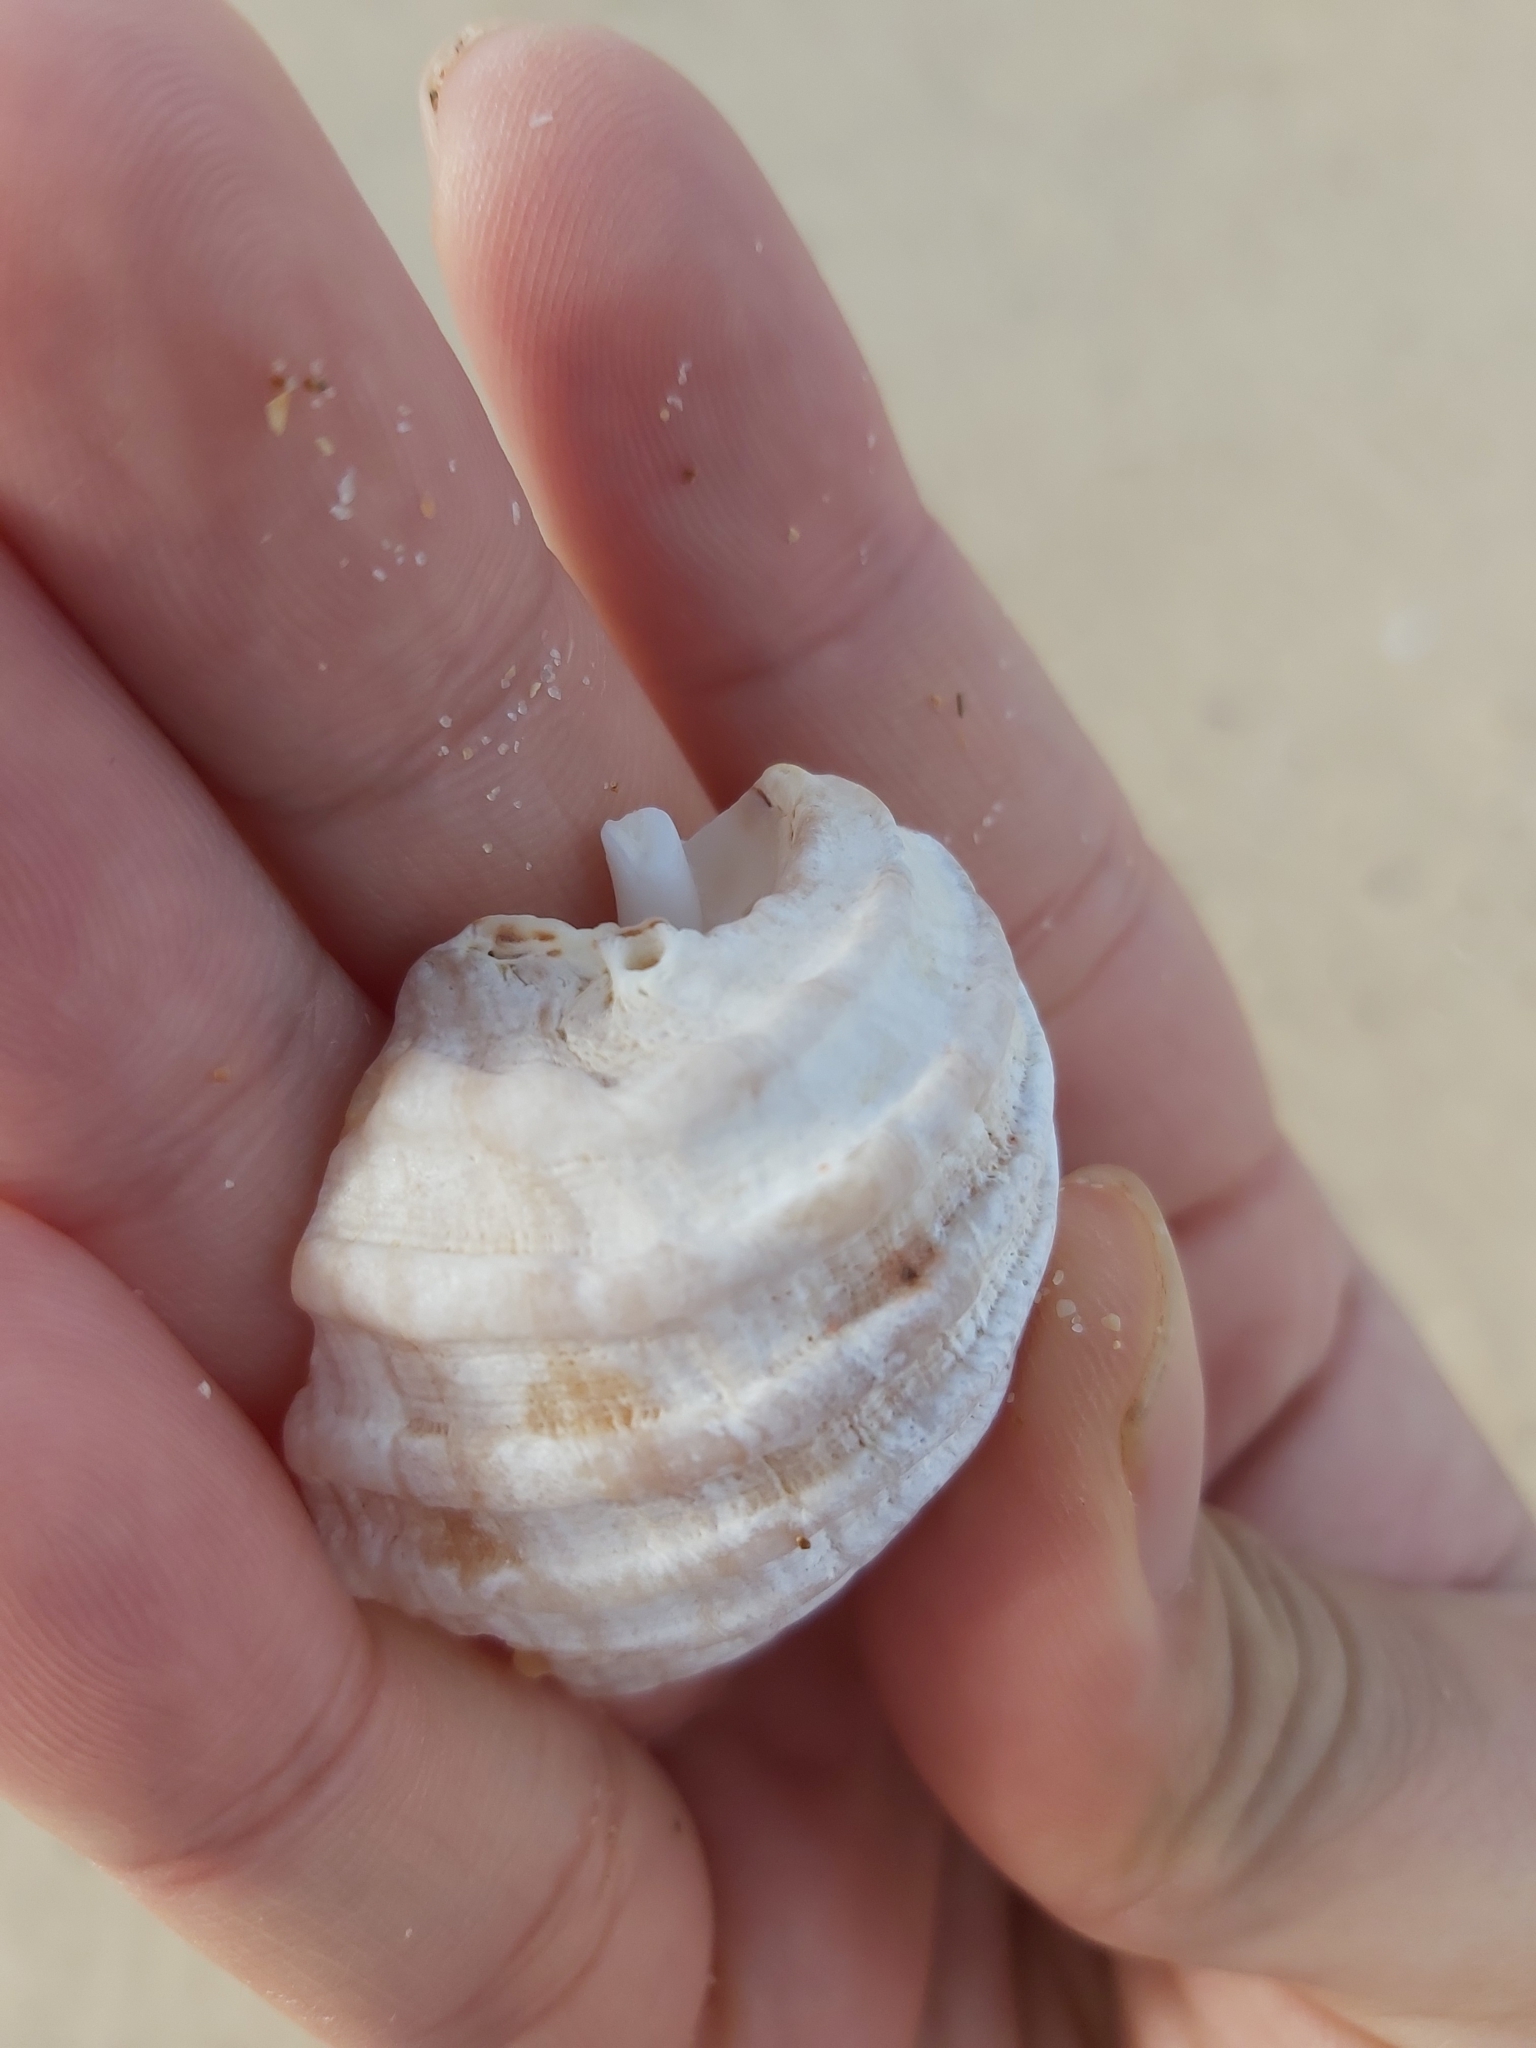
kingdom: Animalia
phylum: Mollusca
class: Gastropoda
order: Neogastropoda
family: Muricidae
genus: Dicathais
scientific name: Dicathais orbita
